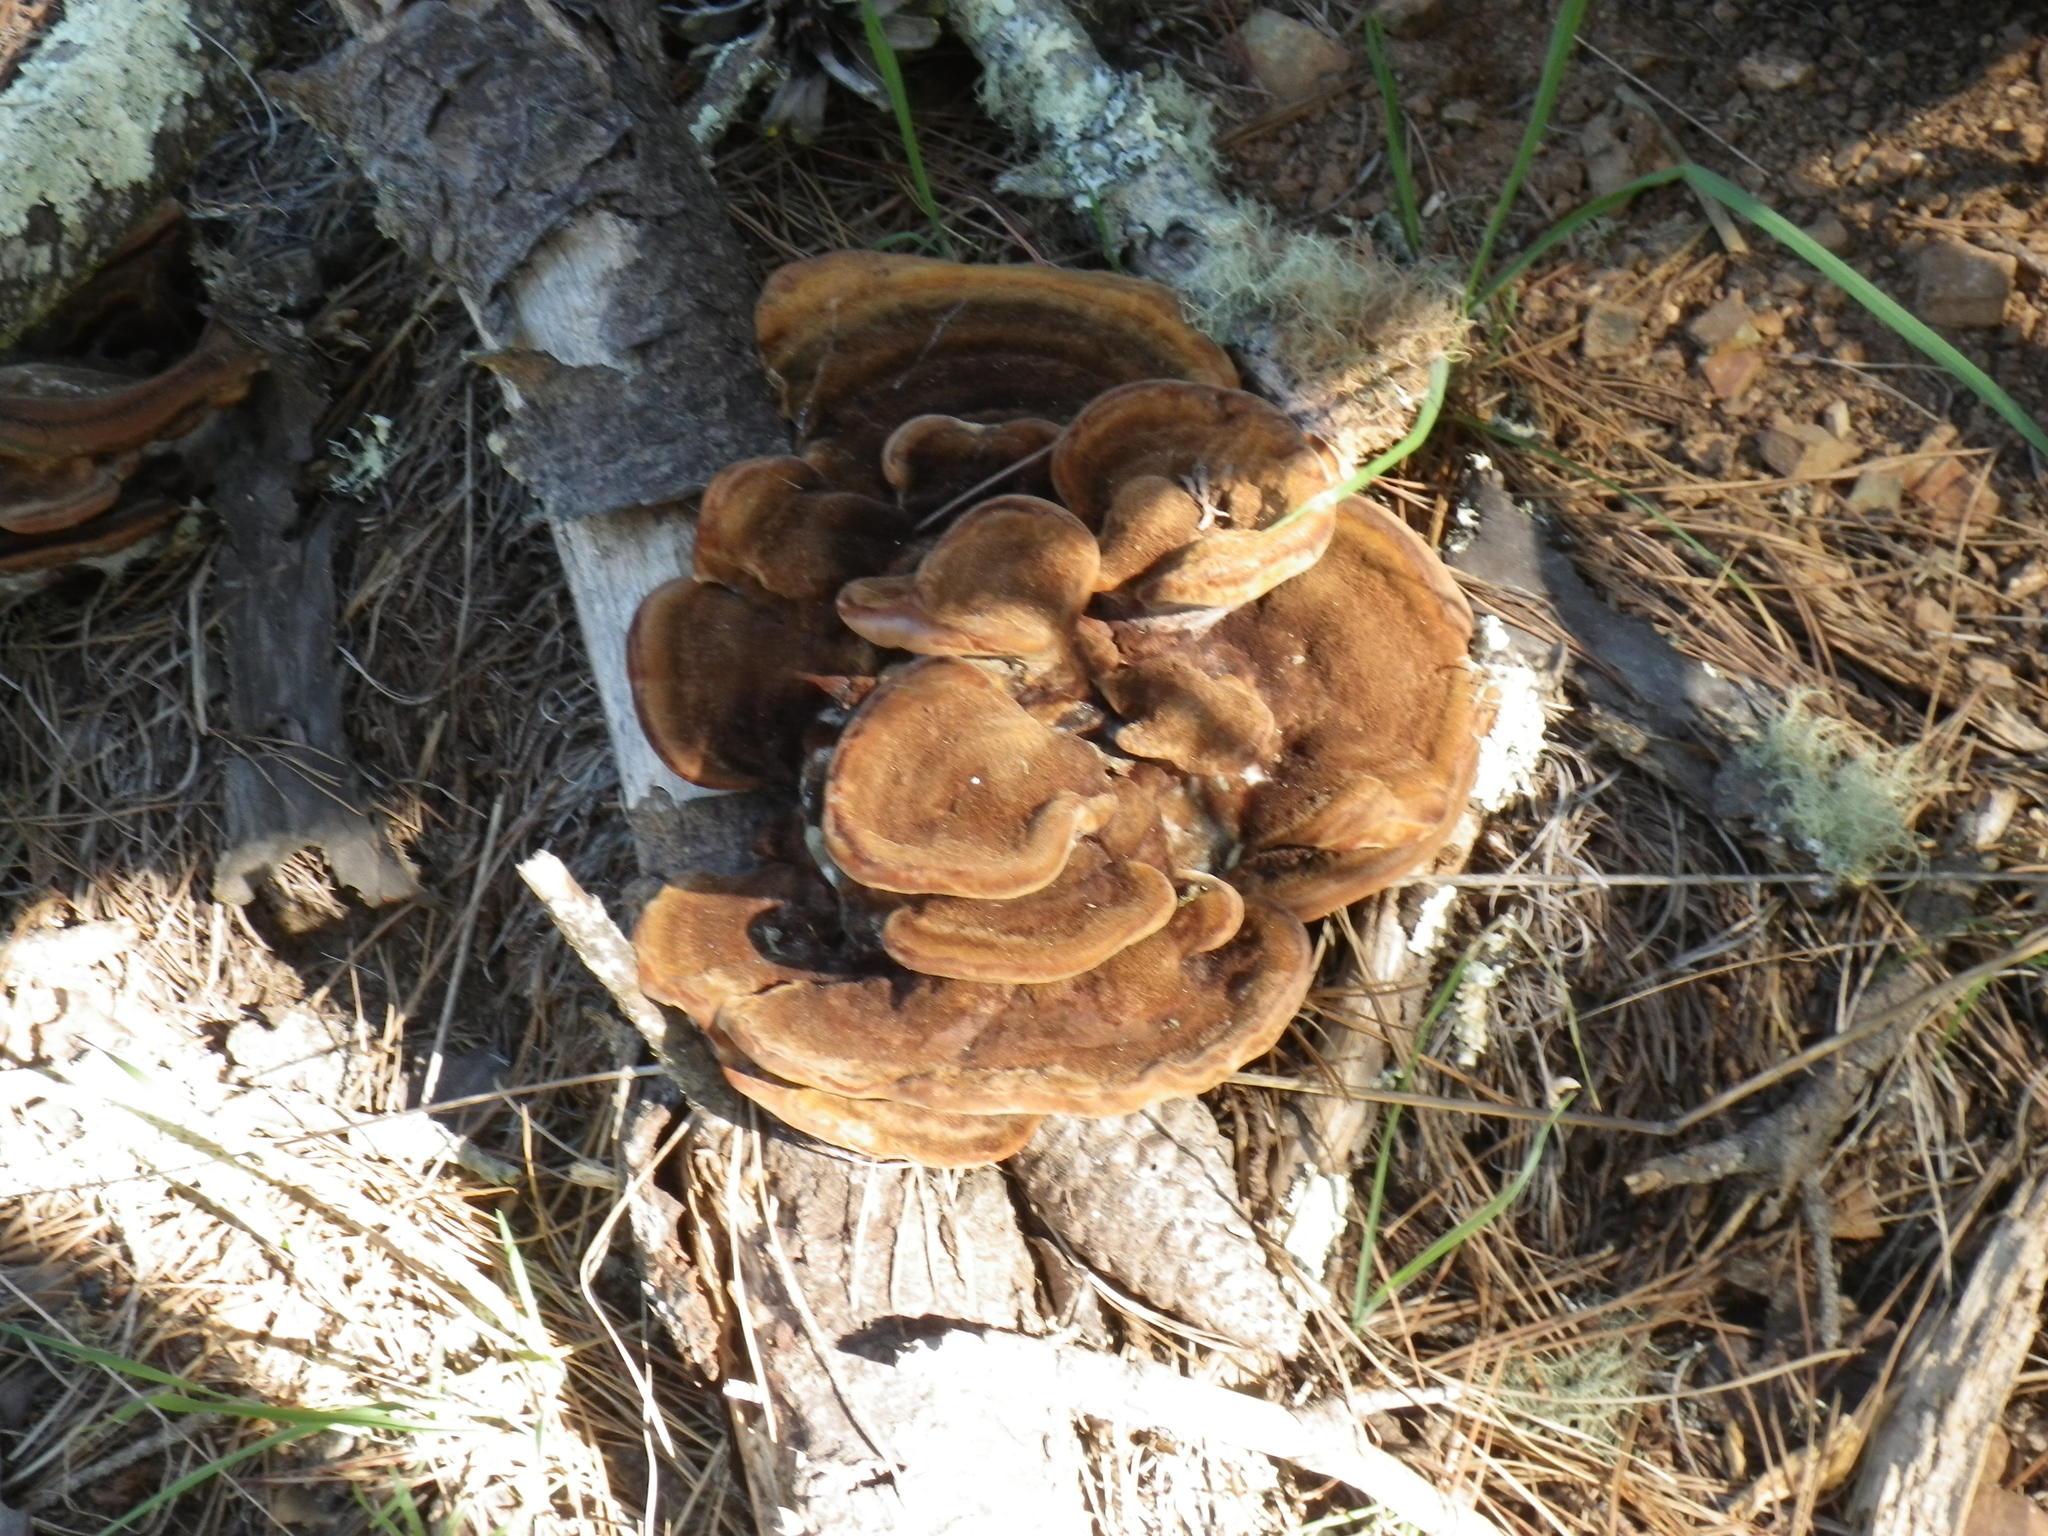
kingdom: Fungi
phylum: Basidiomycota
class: Agaricomycetes
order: Polyporales
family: Laetiporaceae
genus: Phaeolus
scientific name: Phaeolus schweinitzii
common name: Dyer's mazegill
